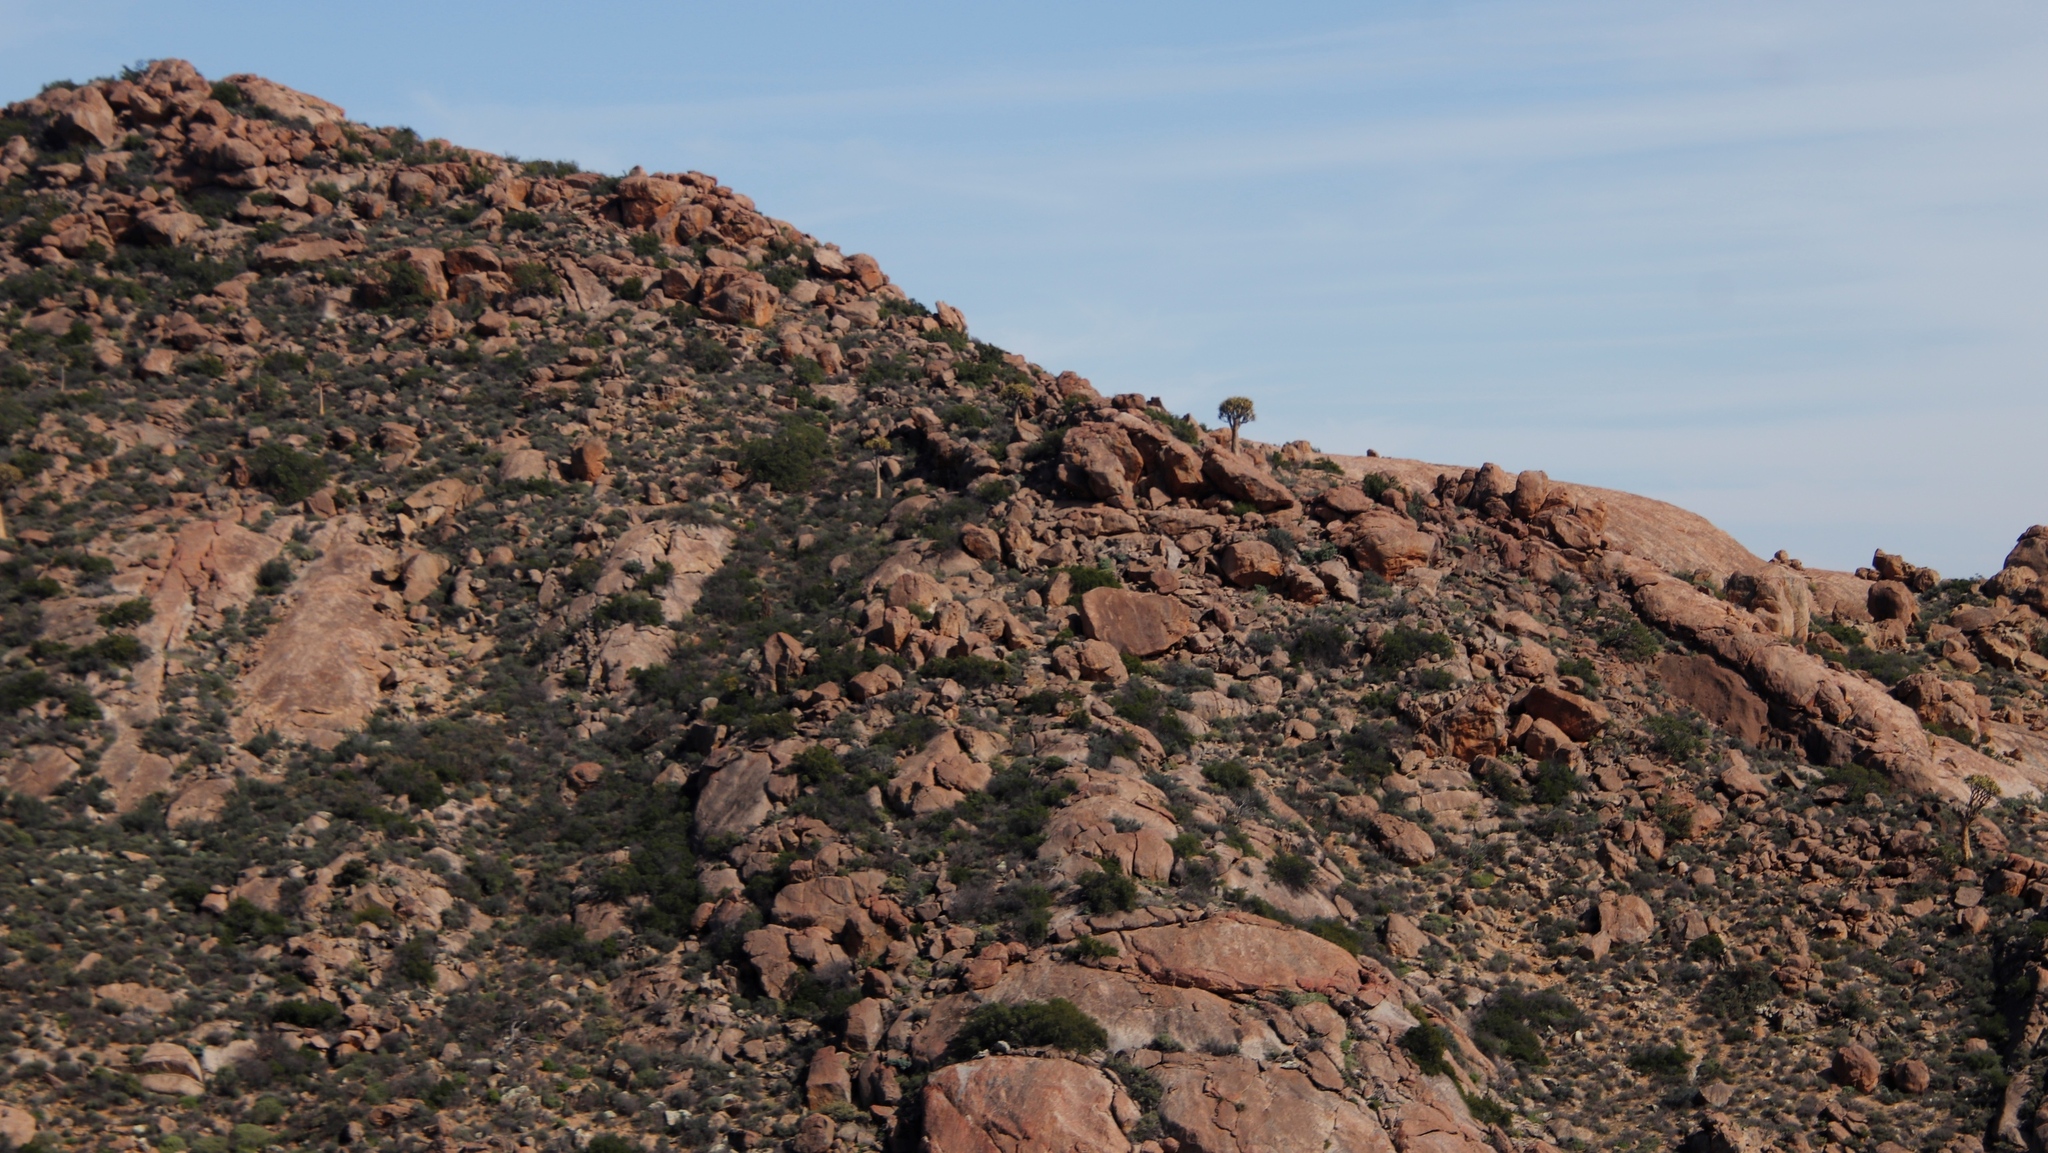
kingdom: Plantae
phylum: Tracheophyta
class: Liliopsida
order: Asparagales
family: Asphodelaceae
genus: Aloidendron
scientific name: Aloidendron dichotomum
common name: Quiver tree
